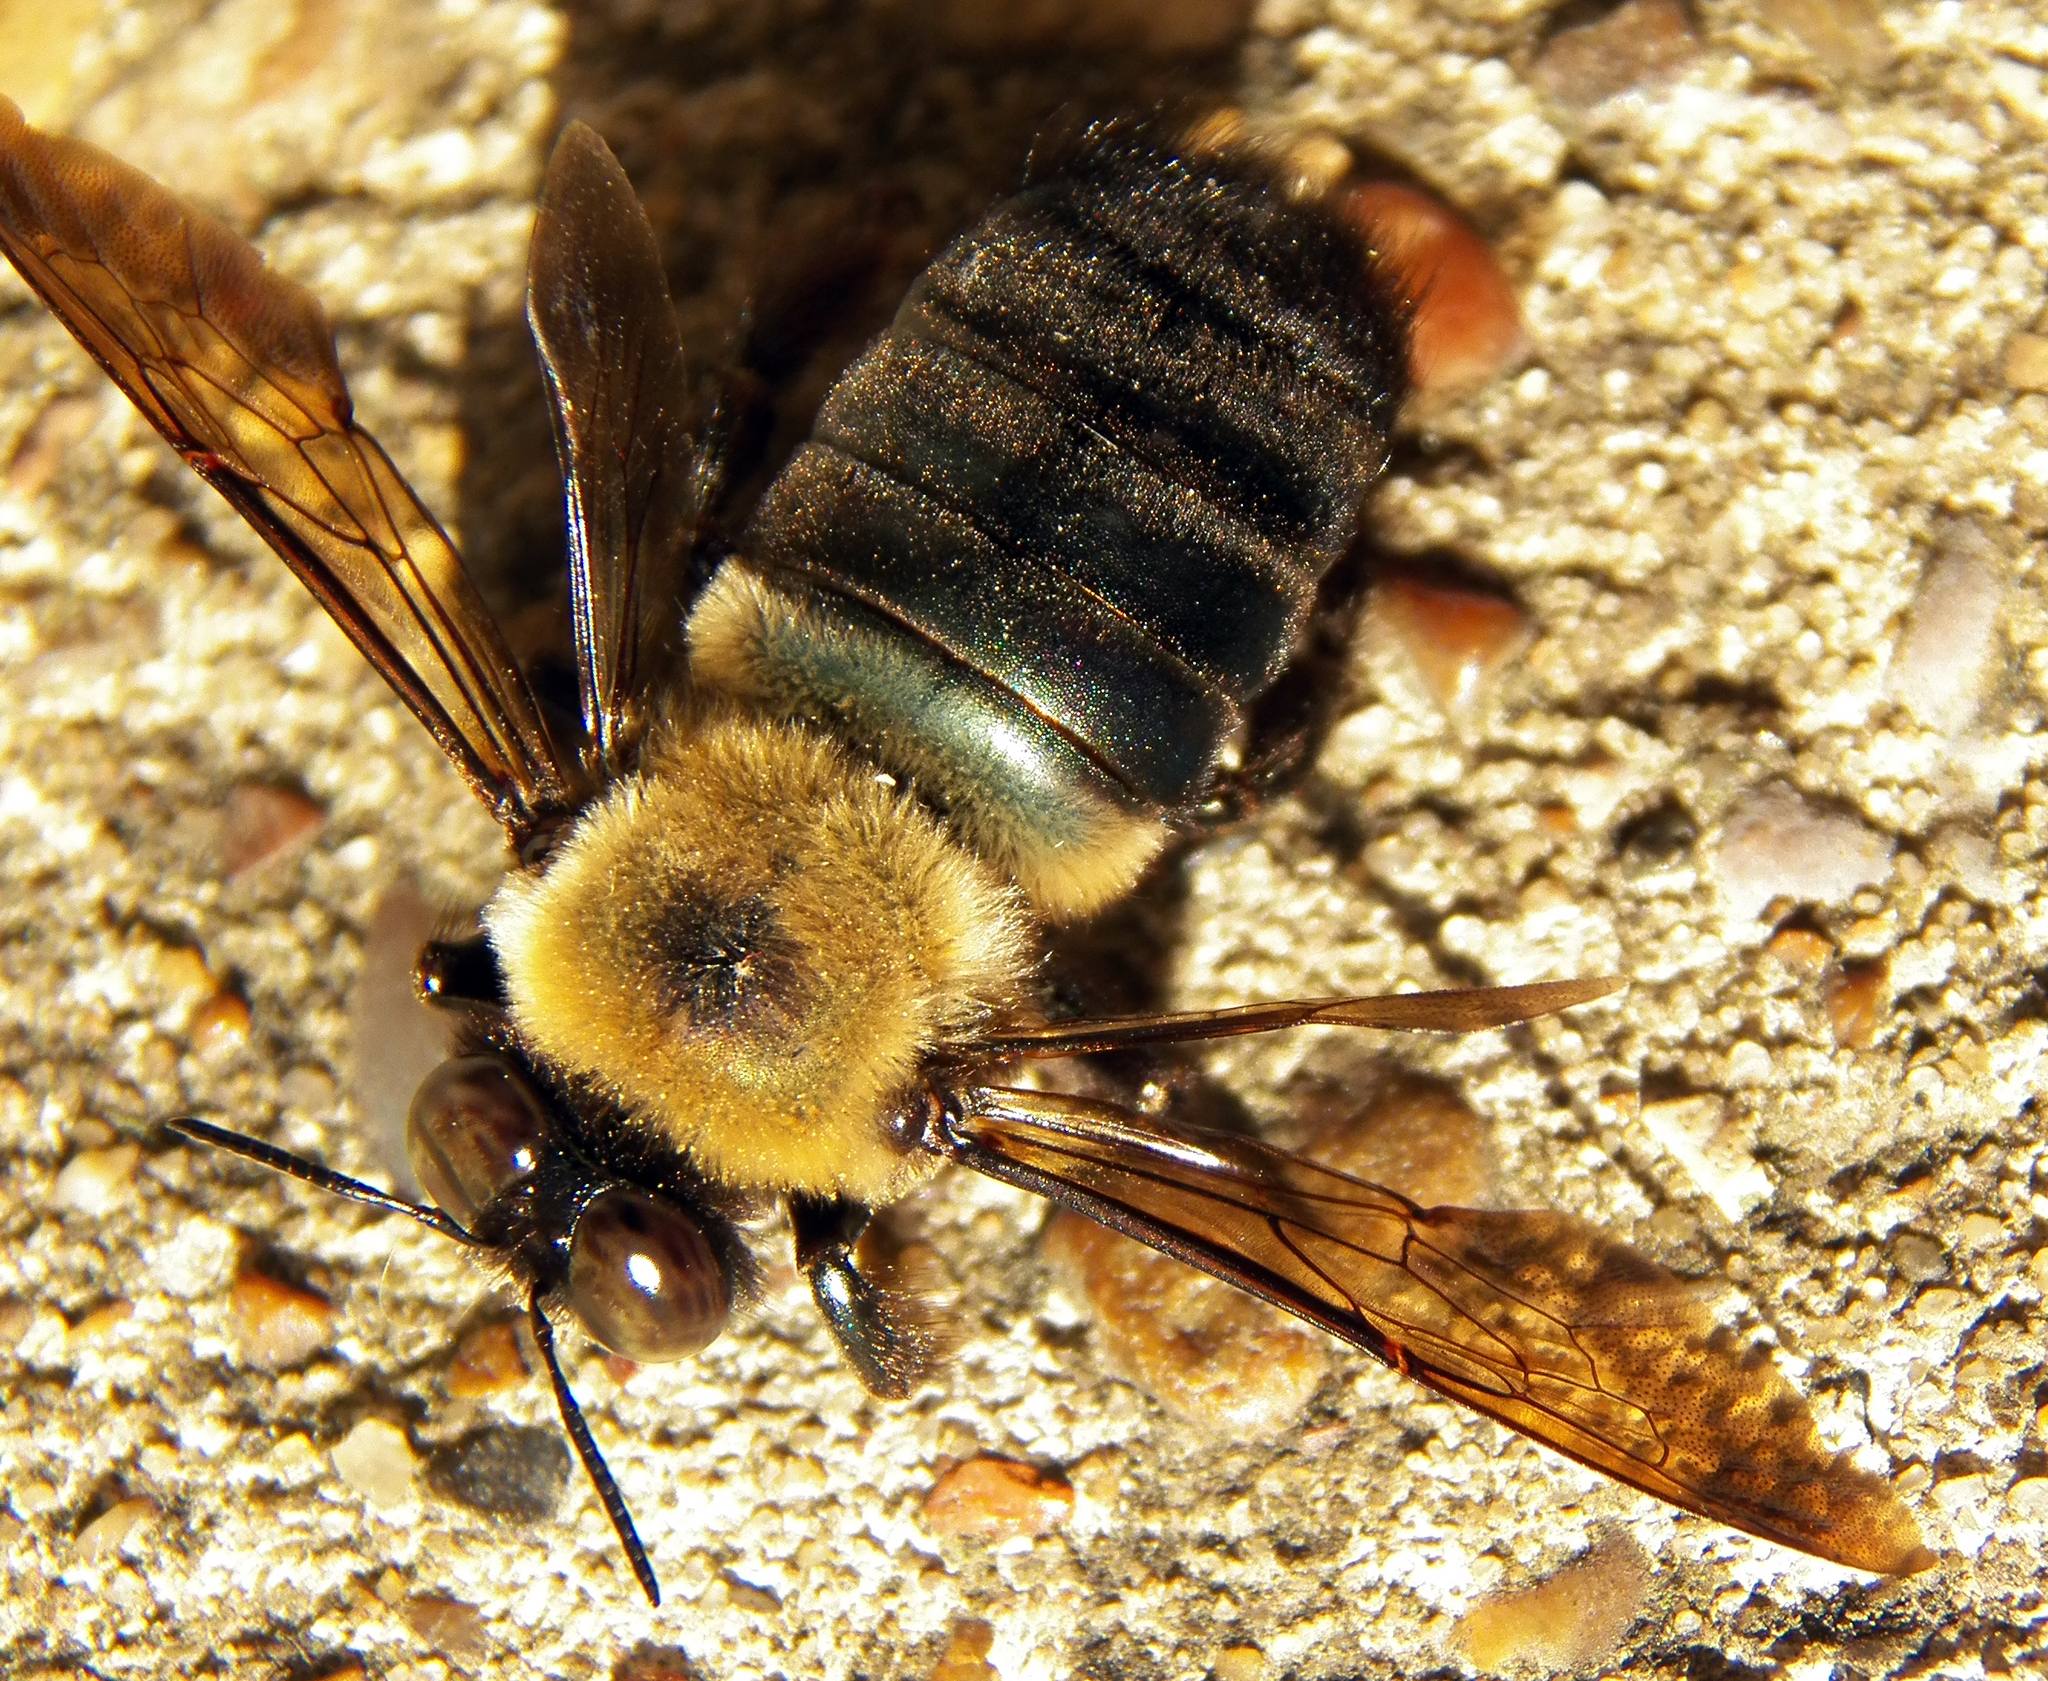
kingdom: Animalia
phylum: Arthropoda
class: Insecta
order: Hymenoptera
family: Apidae
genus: Xylocopa
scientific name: Xylocopa virginica
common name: Carpenter bee
